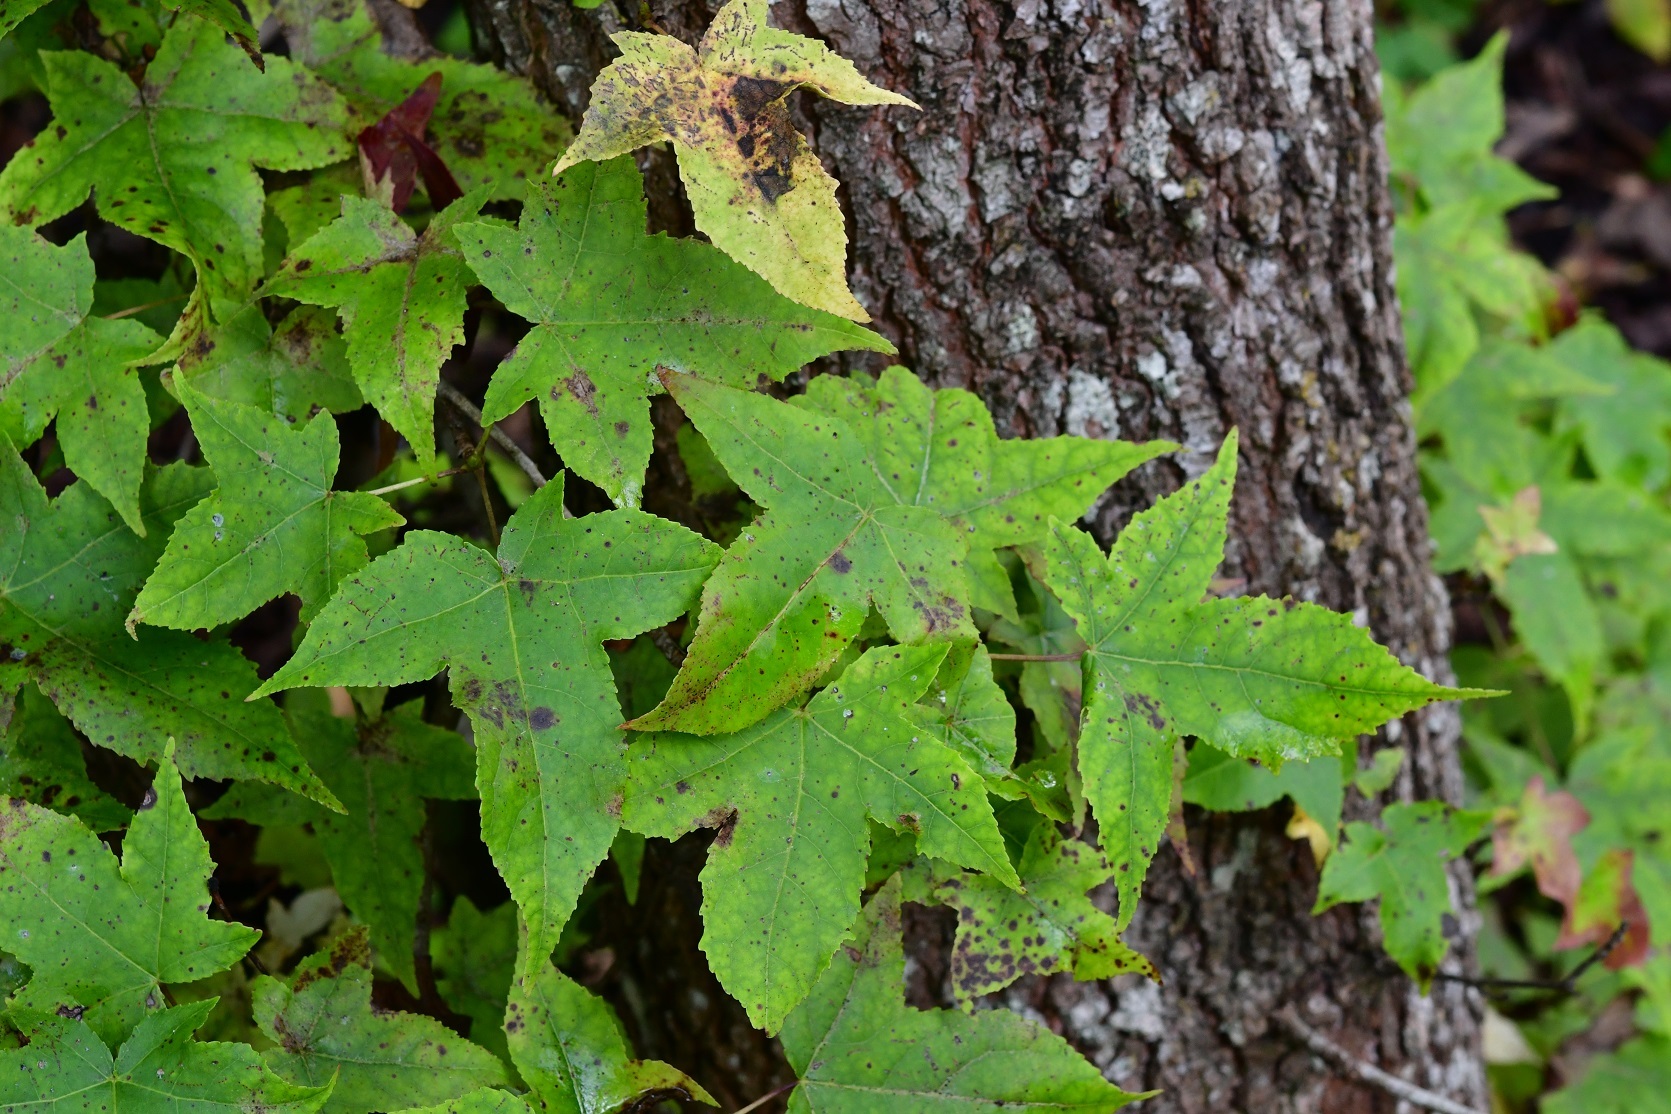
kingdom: Plantae
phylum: Tracheophyta
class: Magnoliopsida
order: Saxifragales
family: Altingiaceae
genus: Liquidambar
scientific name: Liquidambar styraciflua
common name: Sweet gum
